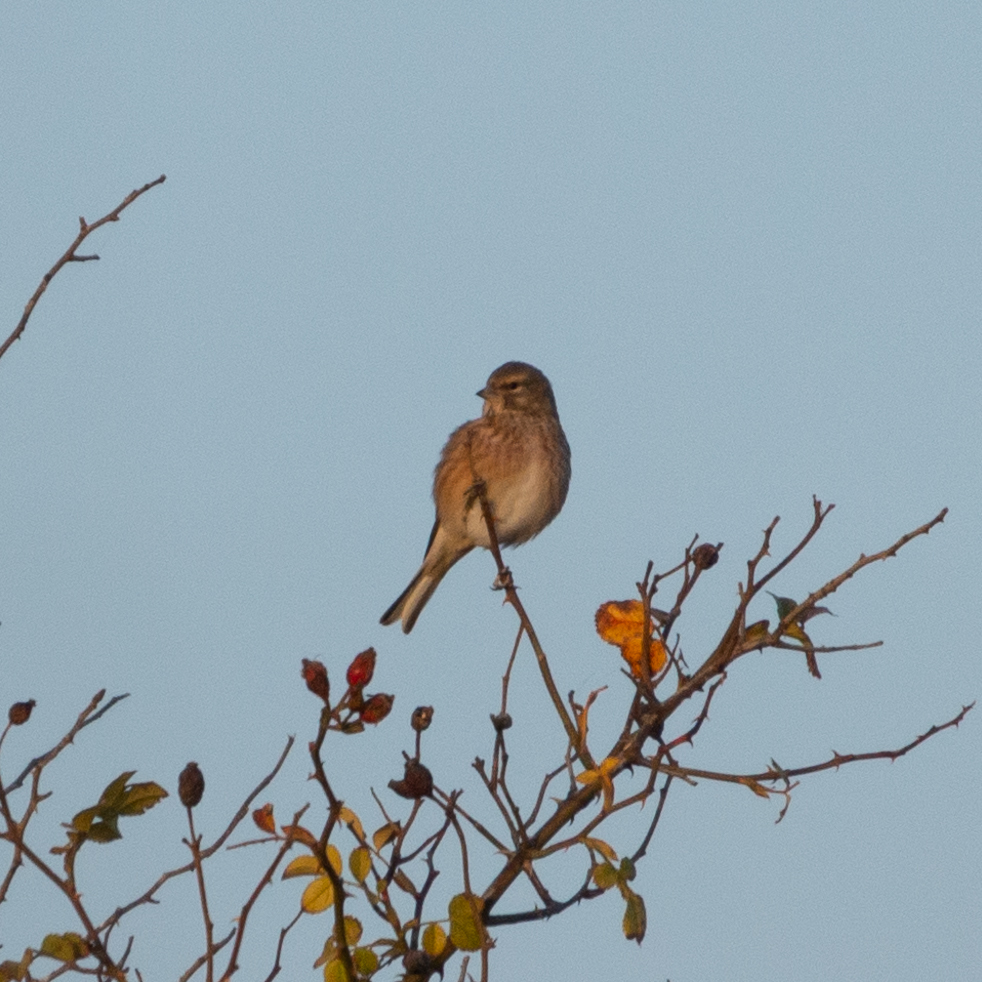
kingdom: Animalia
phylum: Chordata
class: Aves
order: Passeriformes
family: Fringillidae
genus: Linaria
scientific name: Linaria cannabina
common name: Common linnet
